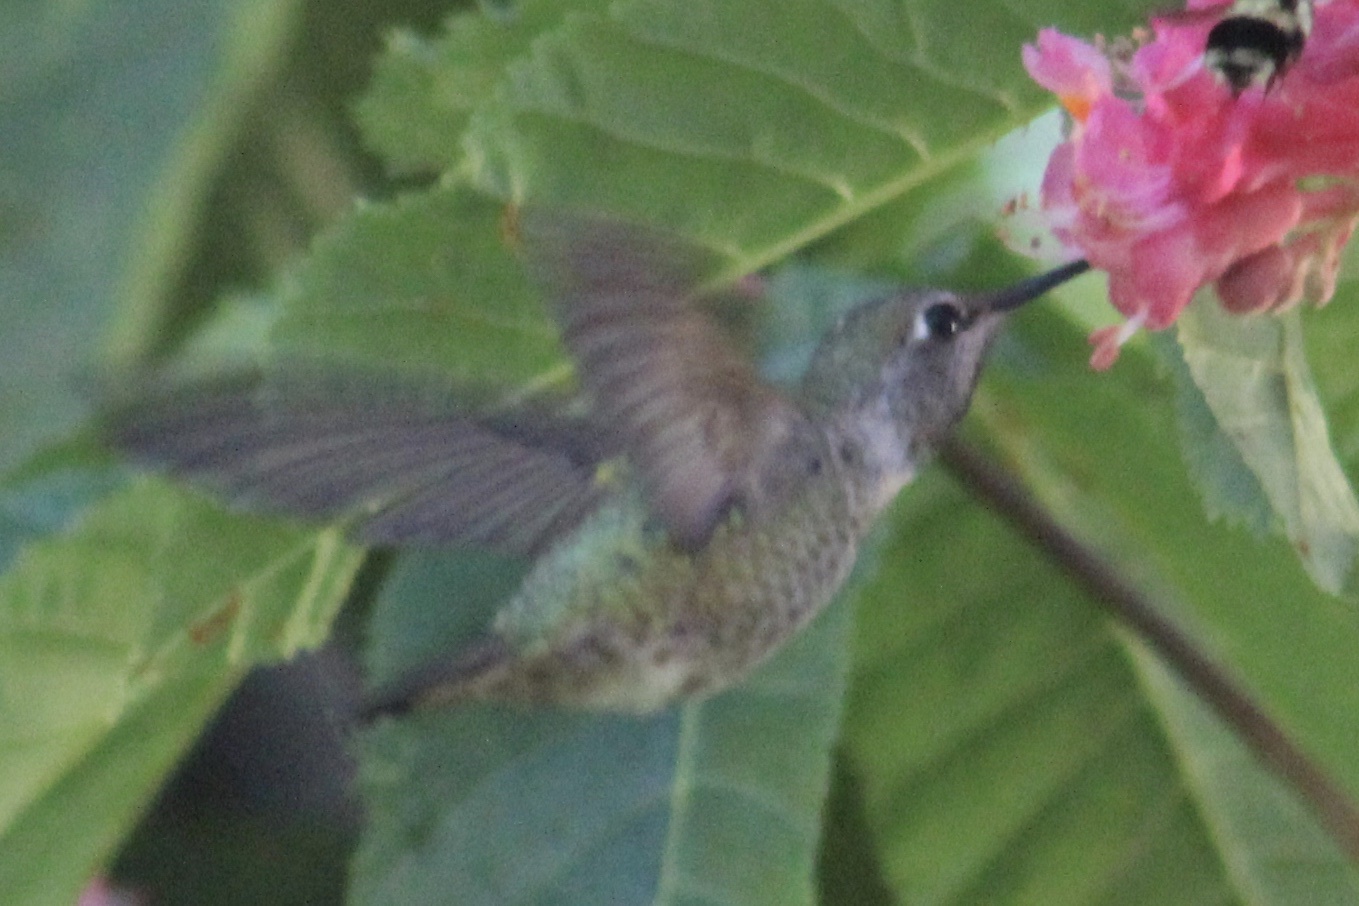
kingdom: Animalia
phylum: Chordata
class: Aves
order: Apodiformes
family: Trochilidae
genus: Calypte
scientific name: Calypte anna
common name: Anna's hummingbird
